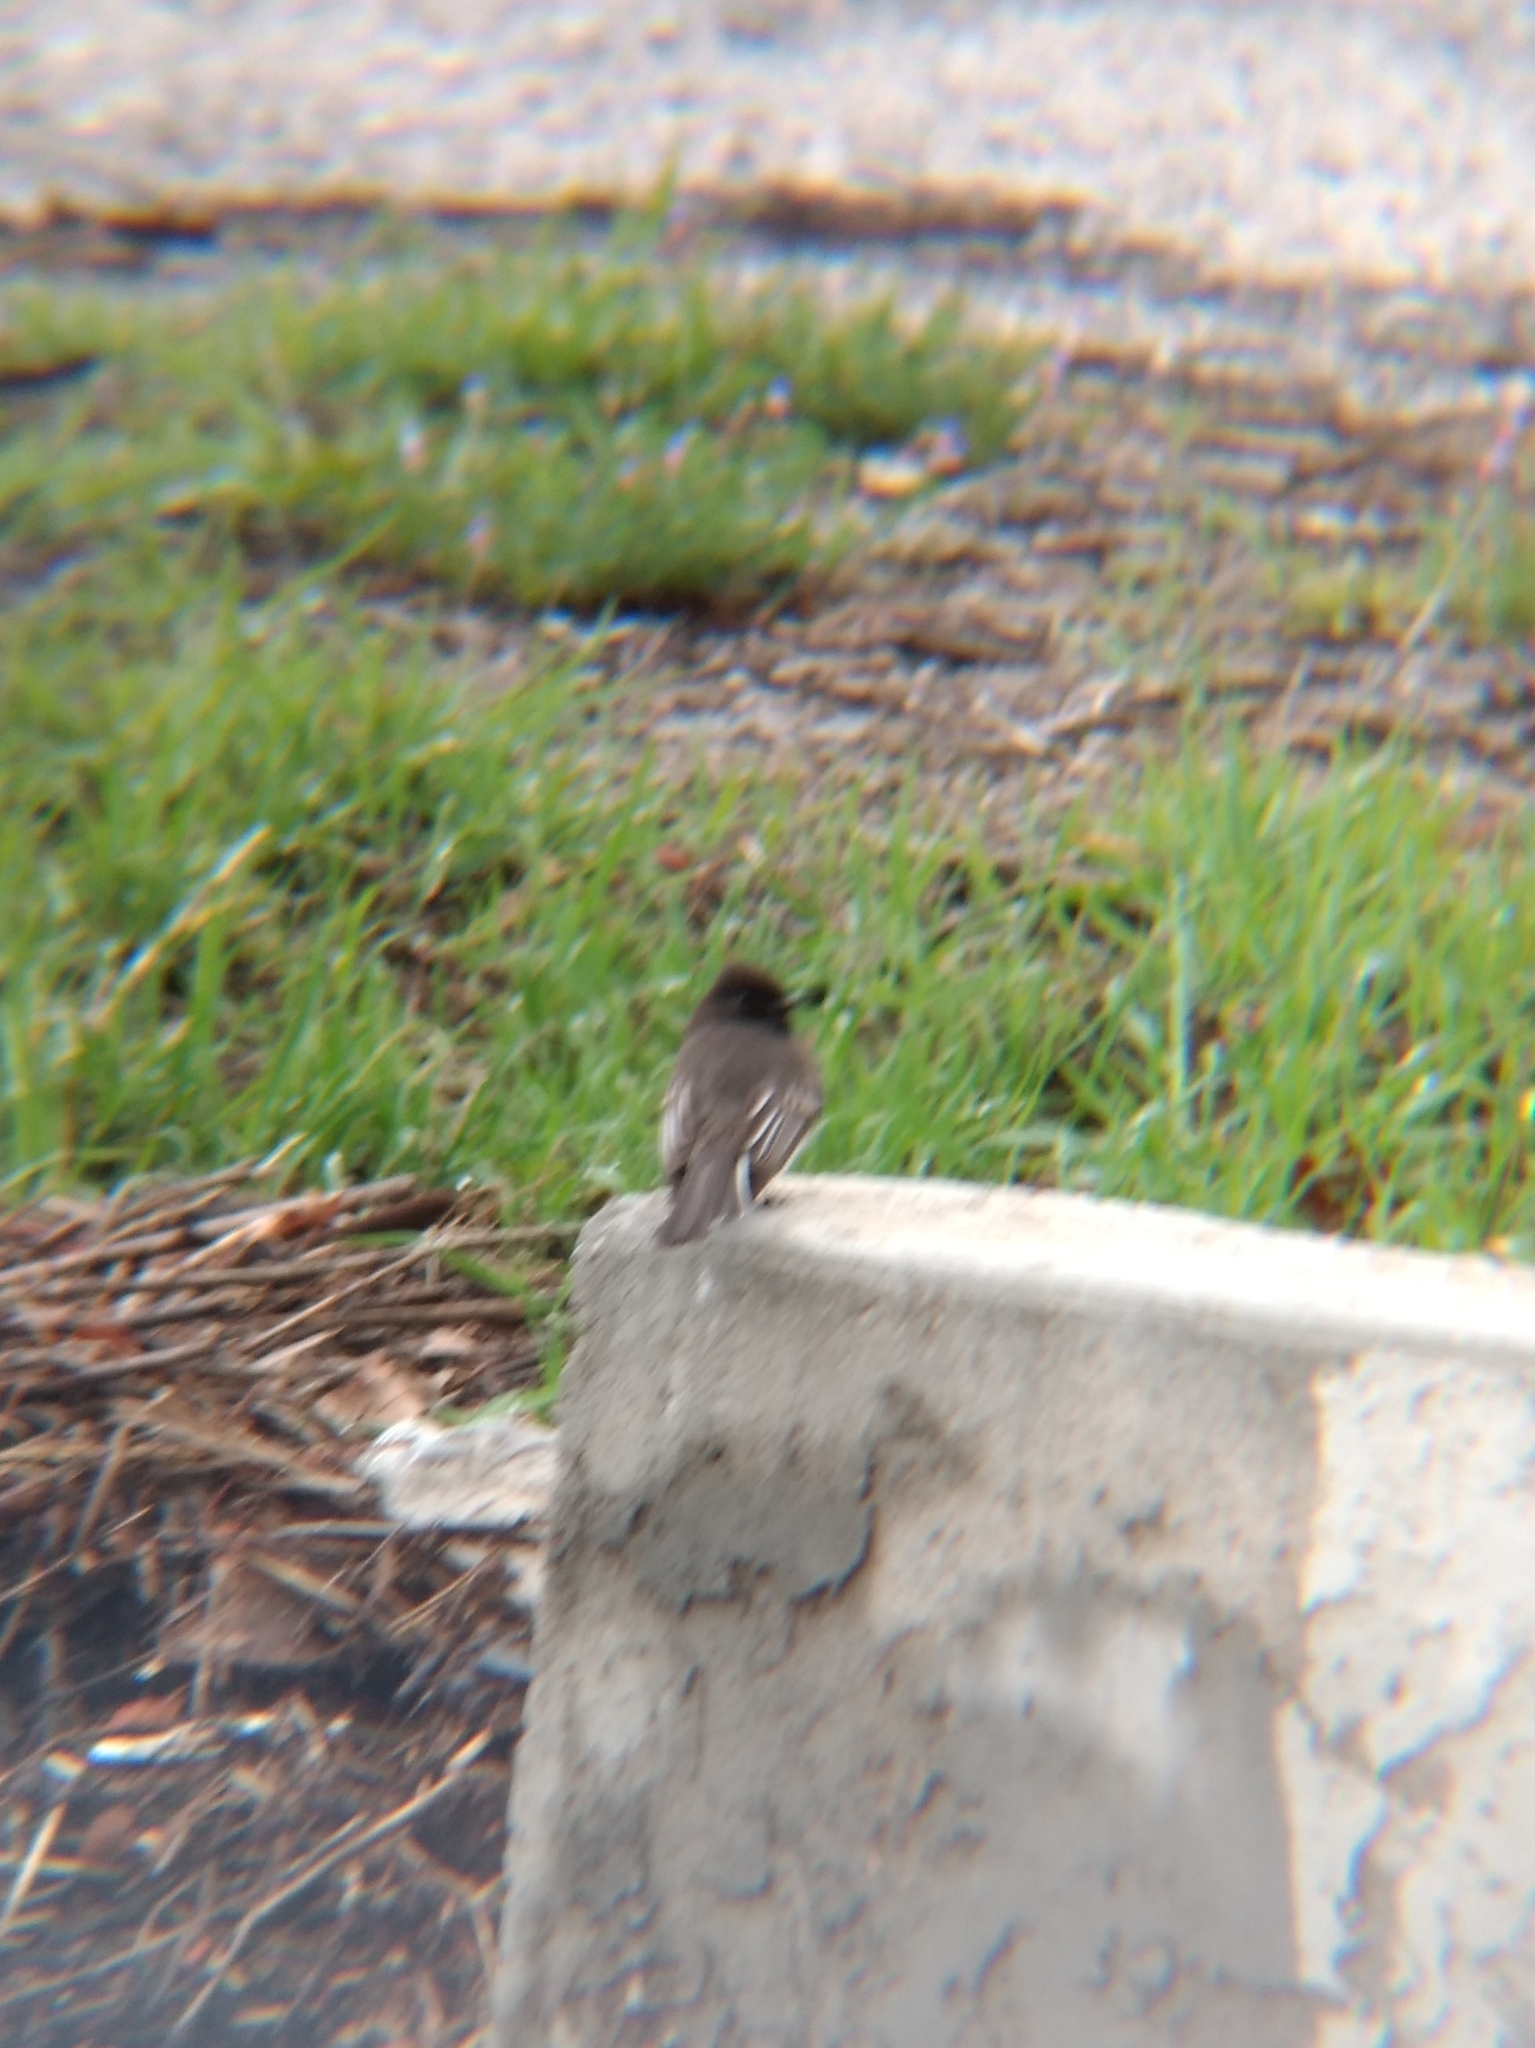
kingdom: Animalia
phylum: Chordata
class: Aves
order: Passeriformes
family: Tyrannidae
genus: Sayornis
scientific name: Sayornis nigricans
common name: Black phoebe
